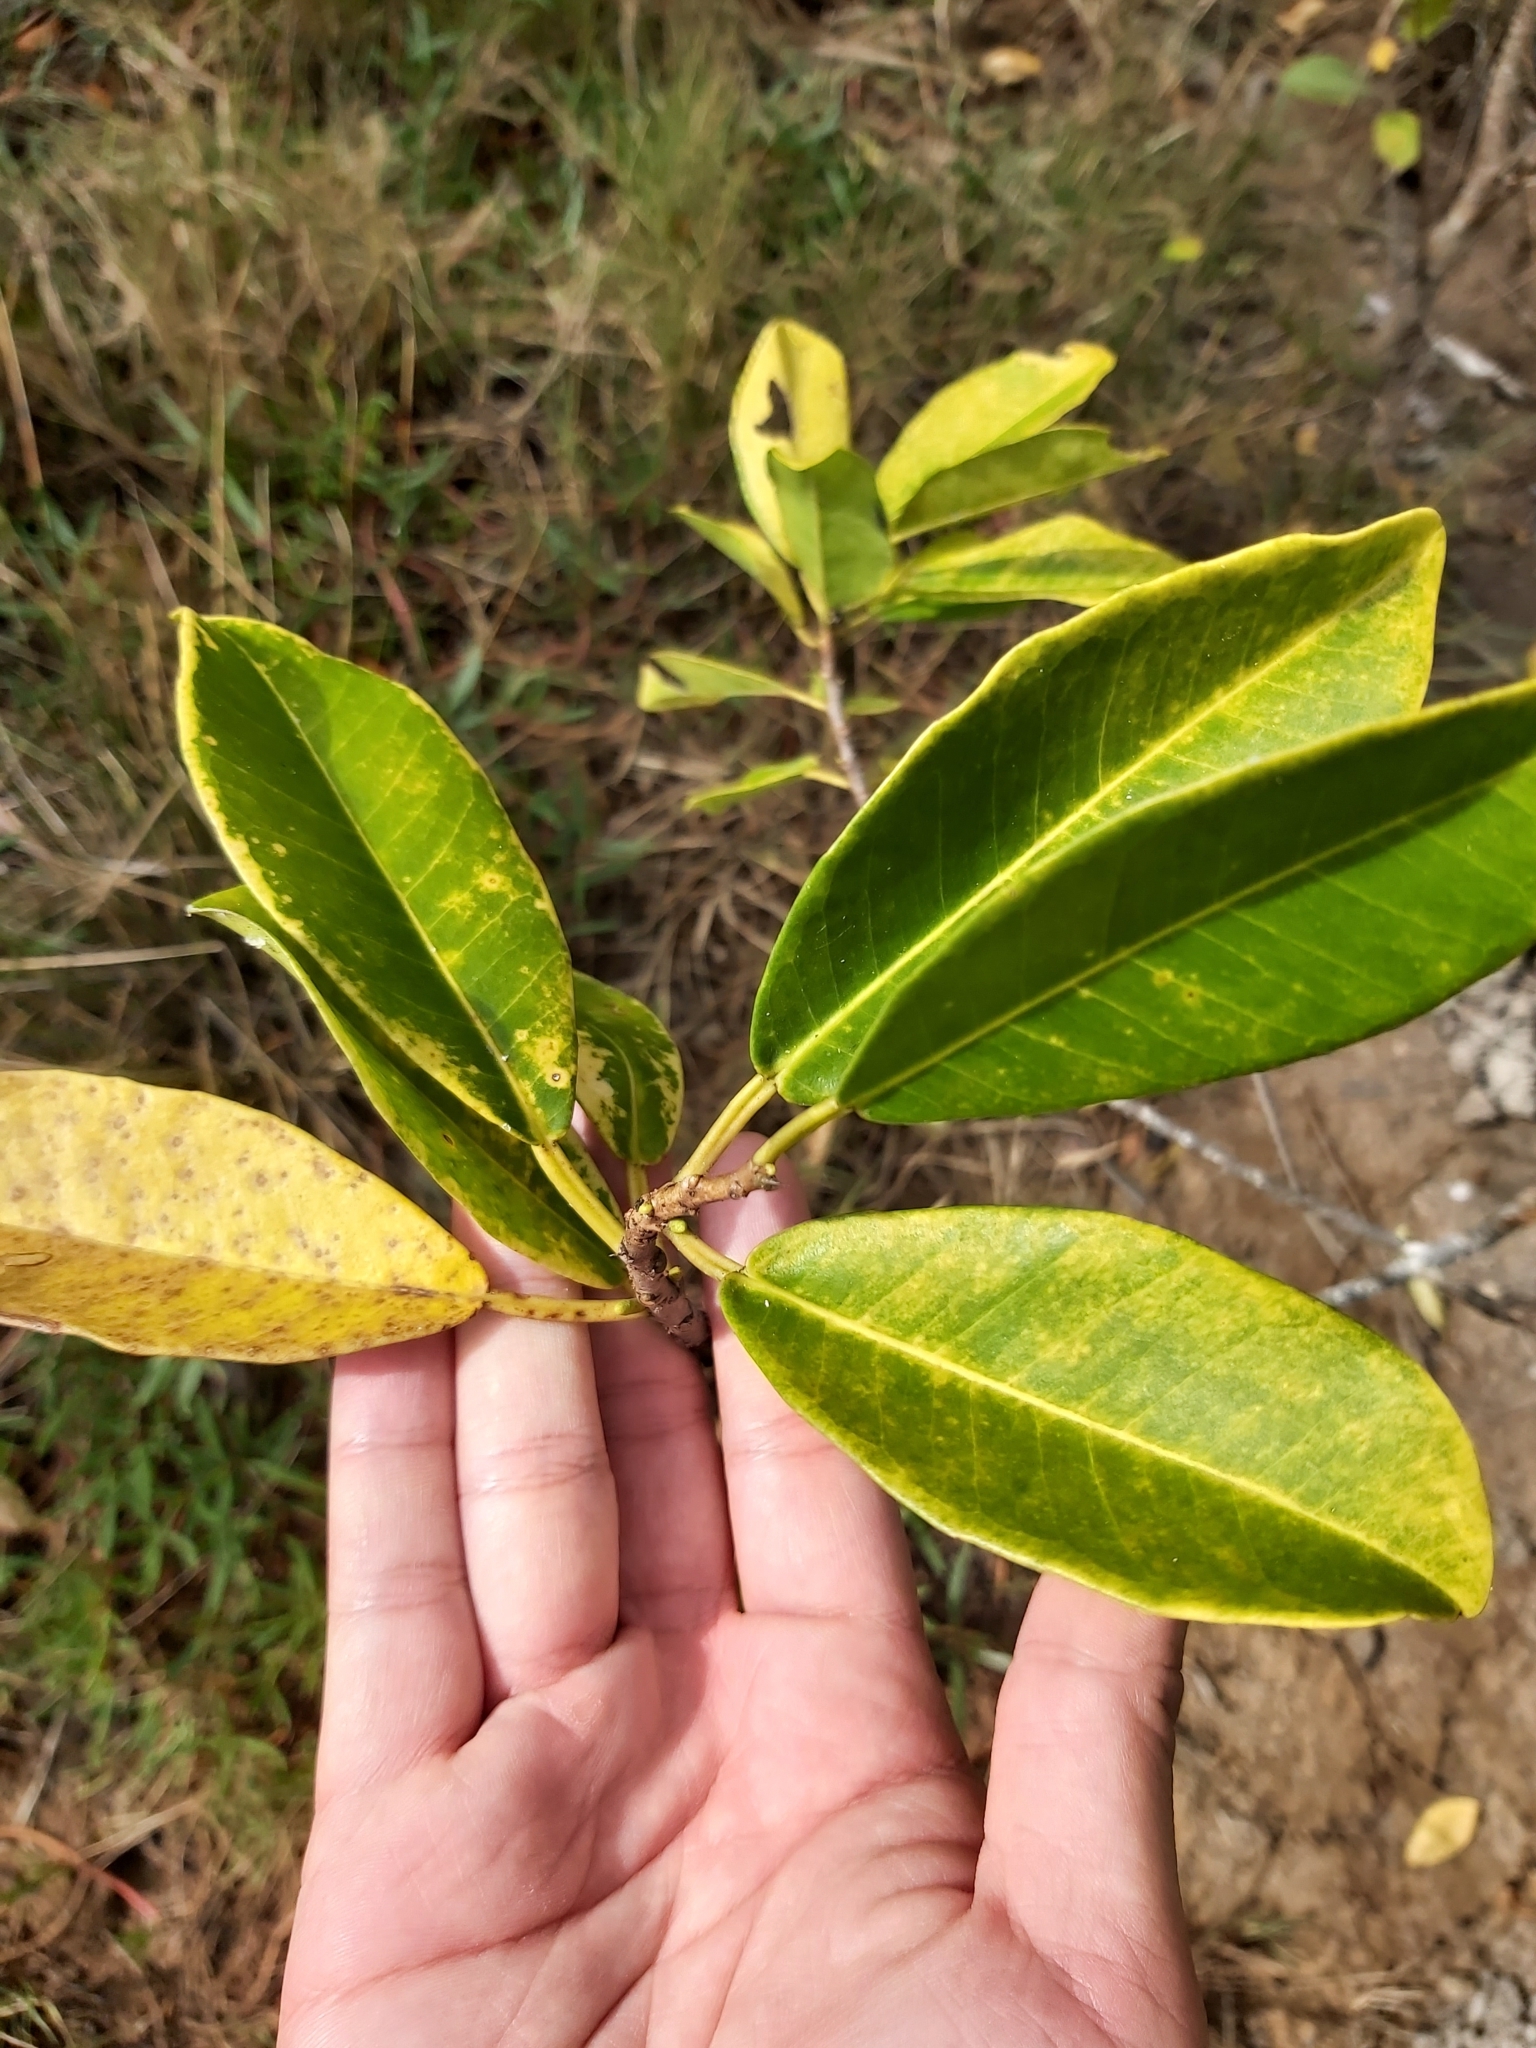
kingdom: Plantae
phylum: Tracheophyta
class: Magnoliopsida
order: Malpighiales
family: Euphorbiaceae
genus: Excoecaria
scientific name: Excoecaria agallocha
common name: River poisontree
